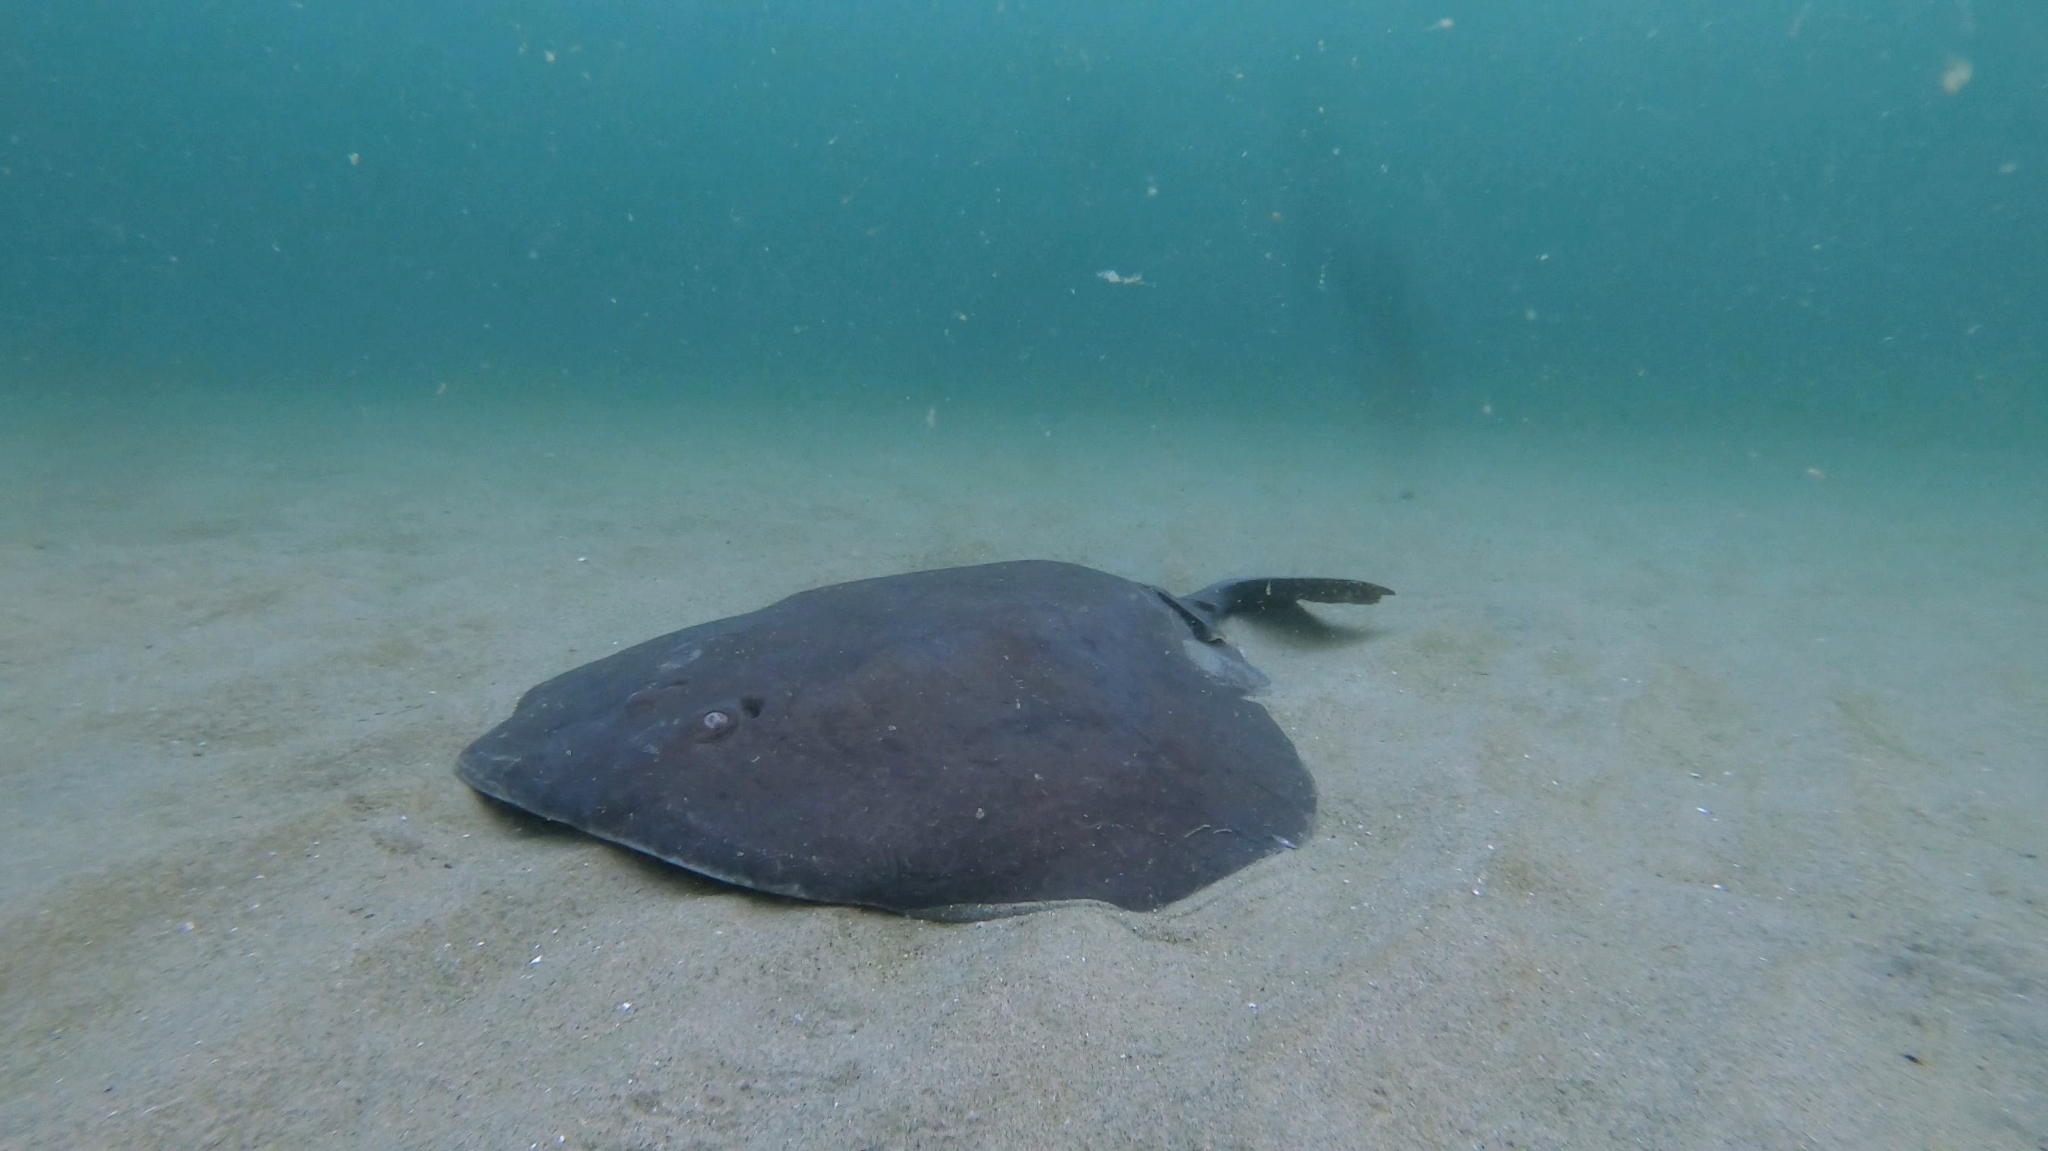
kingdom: Animalia
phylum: Chordata
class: Elasmobranchii
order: Torpediniformes
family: Torpedinidae
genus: Tetronarce
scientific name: Tetronarce nobiliana
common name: Electric ray
